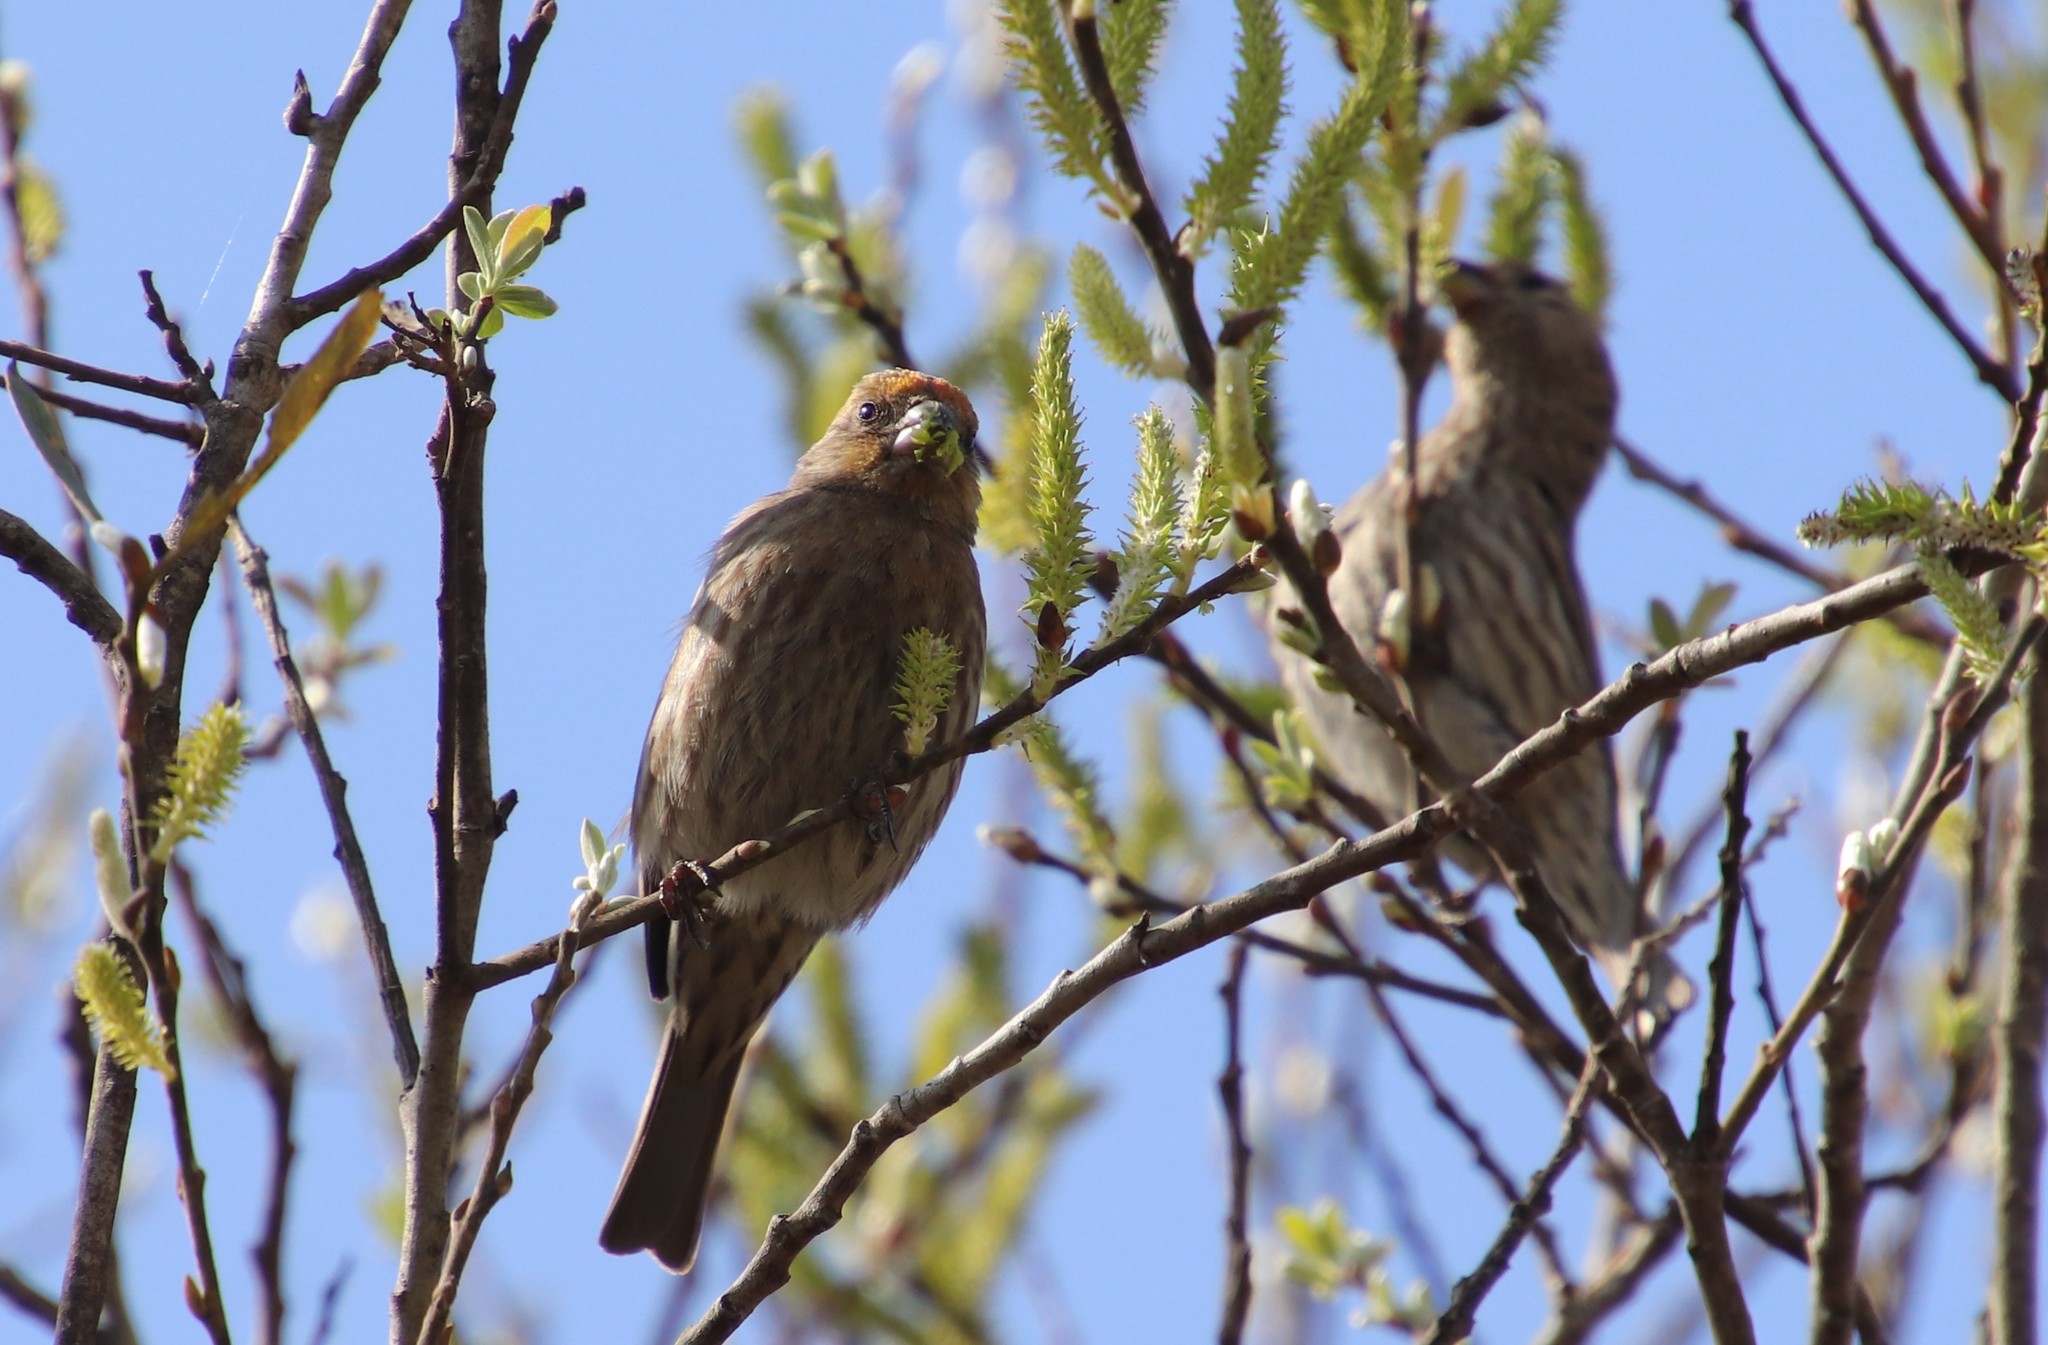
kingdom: Animalia
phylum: Chordata
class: Aves
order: Passeriformes
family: Fringillidae
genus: Haemorhous
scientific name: Haemorhous mexicanus
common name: House finch
